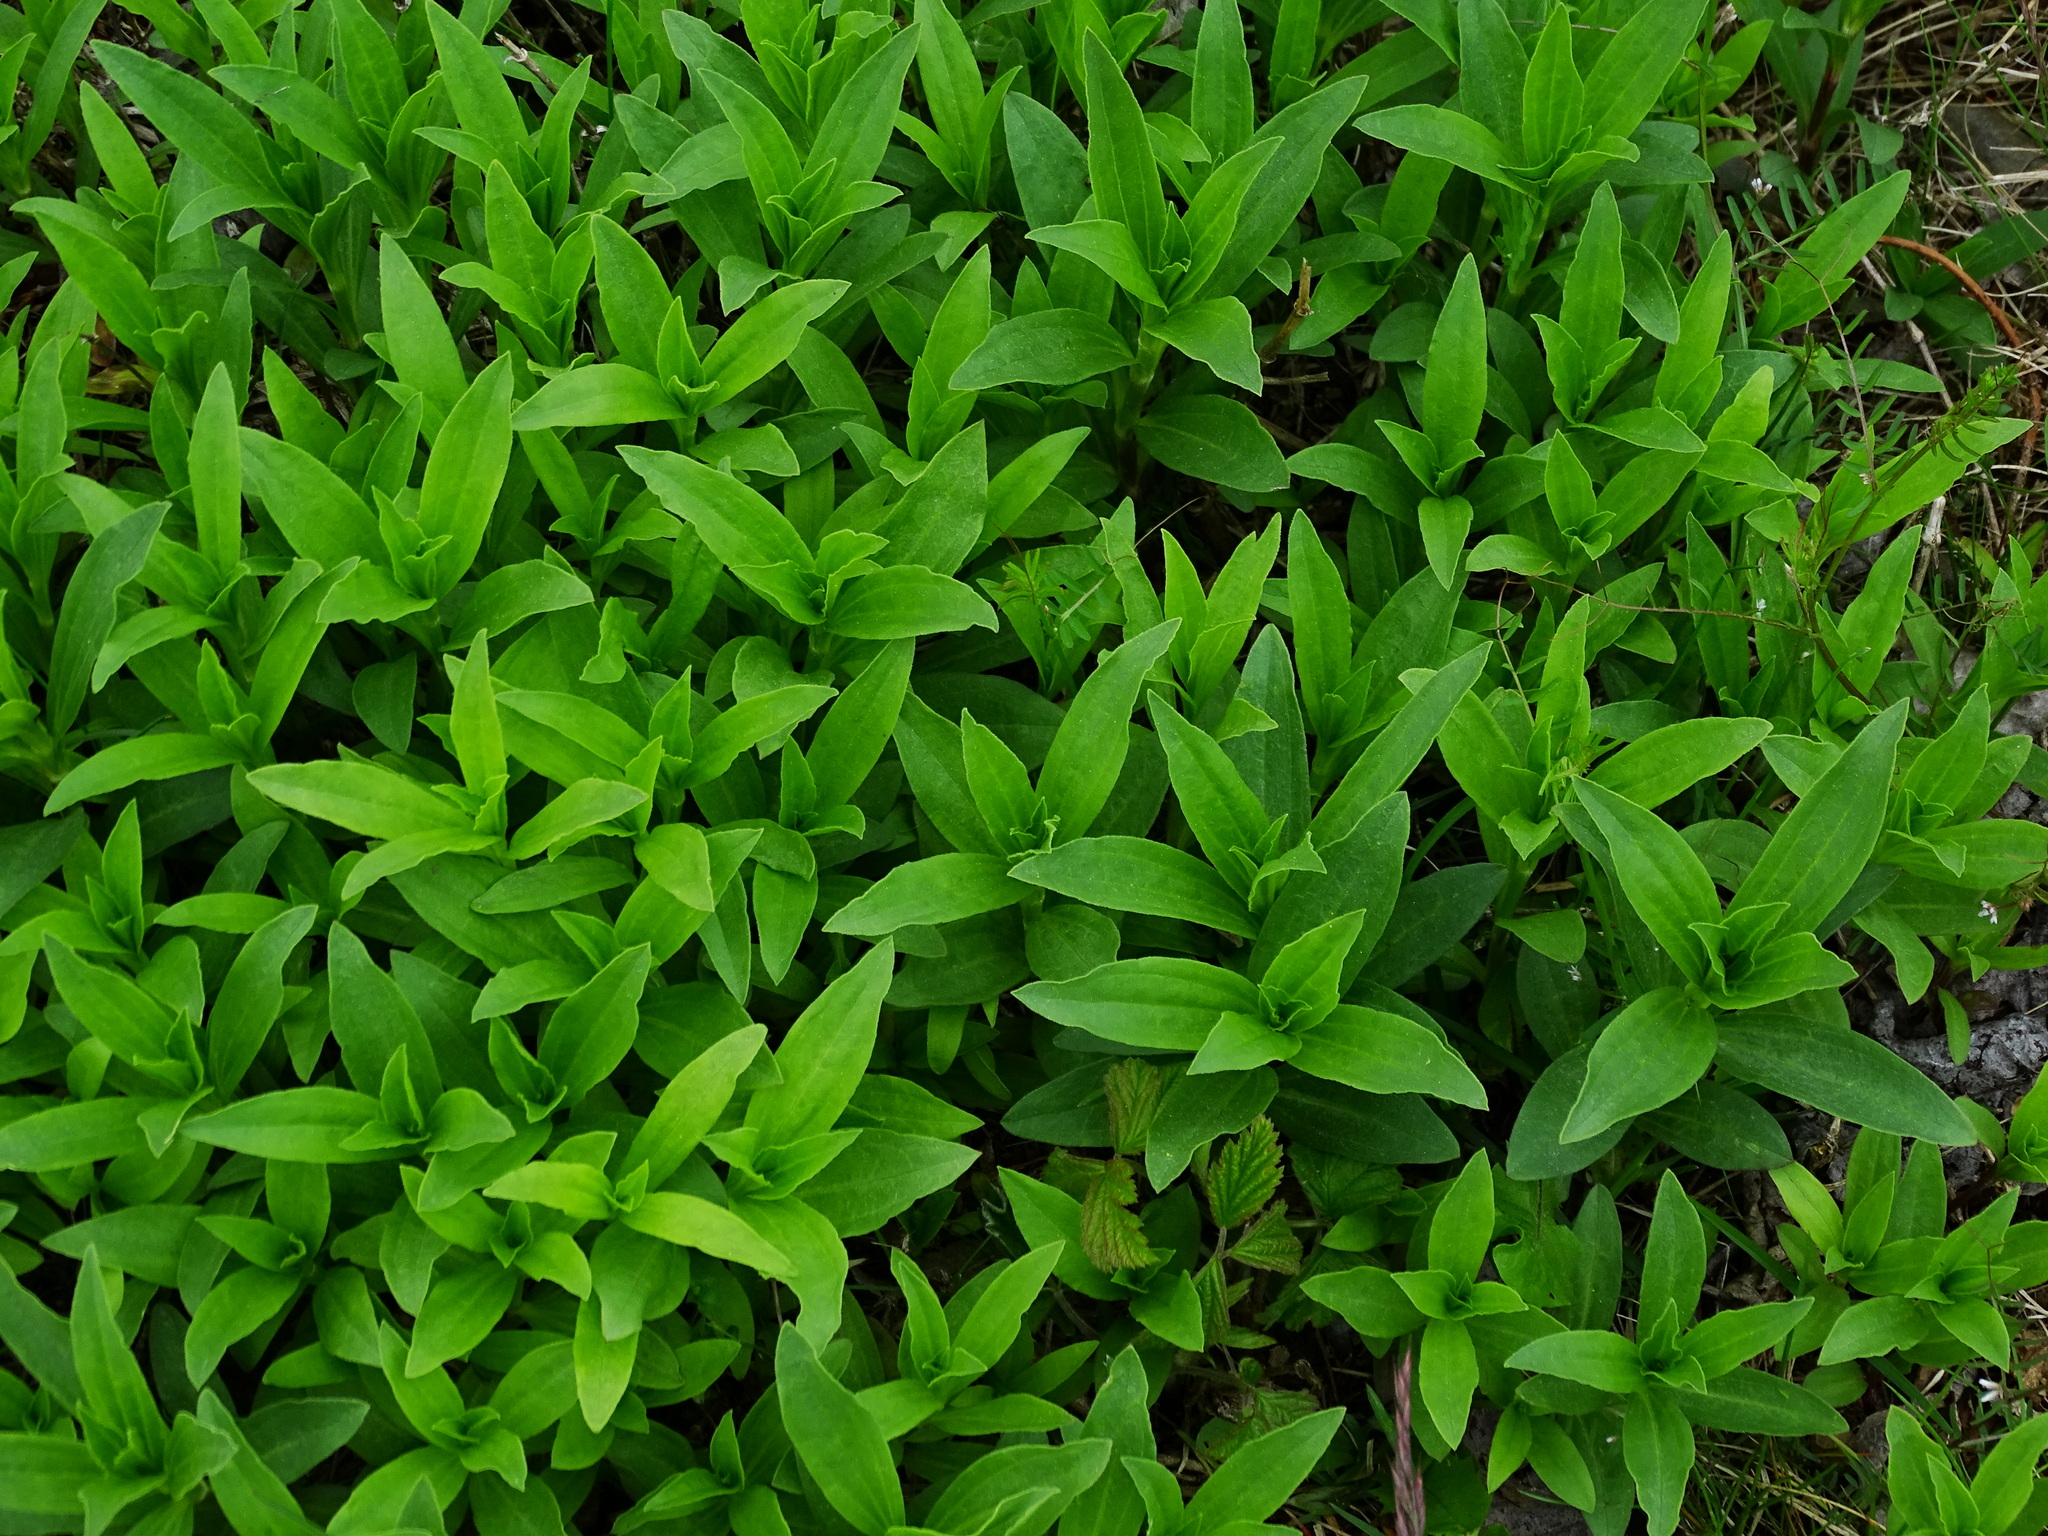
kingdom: Plantae
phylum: Tracheophyta
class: Magnoliopsida
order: Caryophyllales
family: Caryophyllaceae
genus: Saponaria
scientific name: Saponaria officinalis
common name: Soapwort
